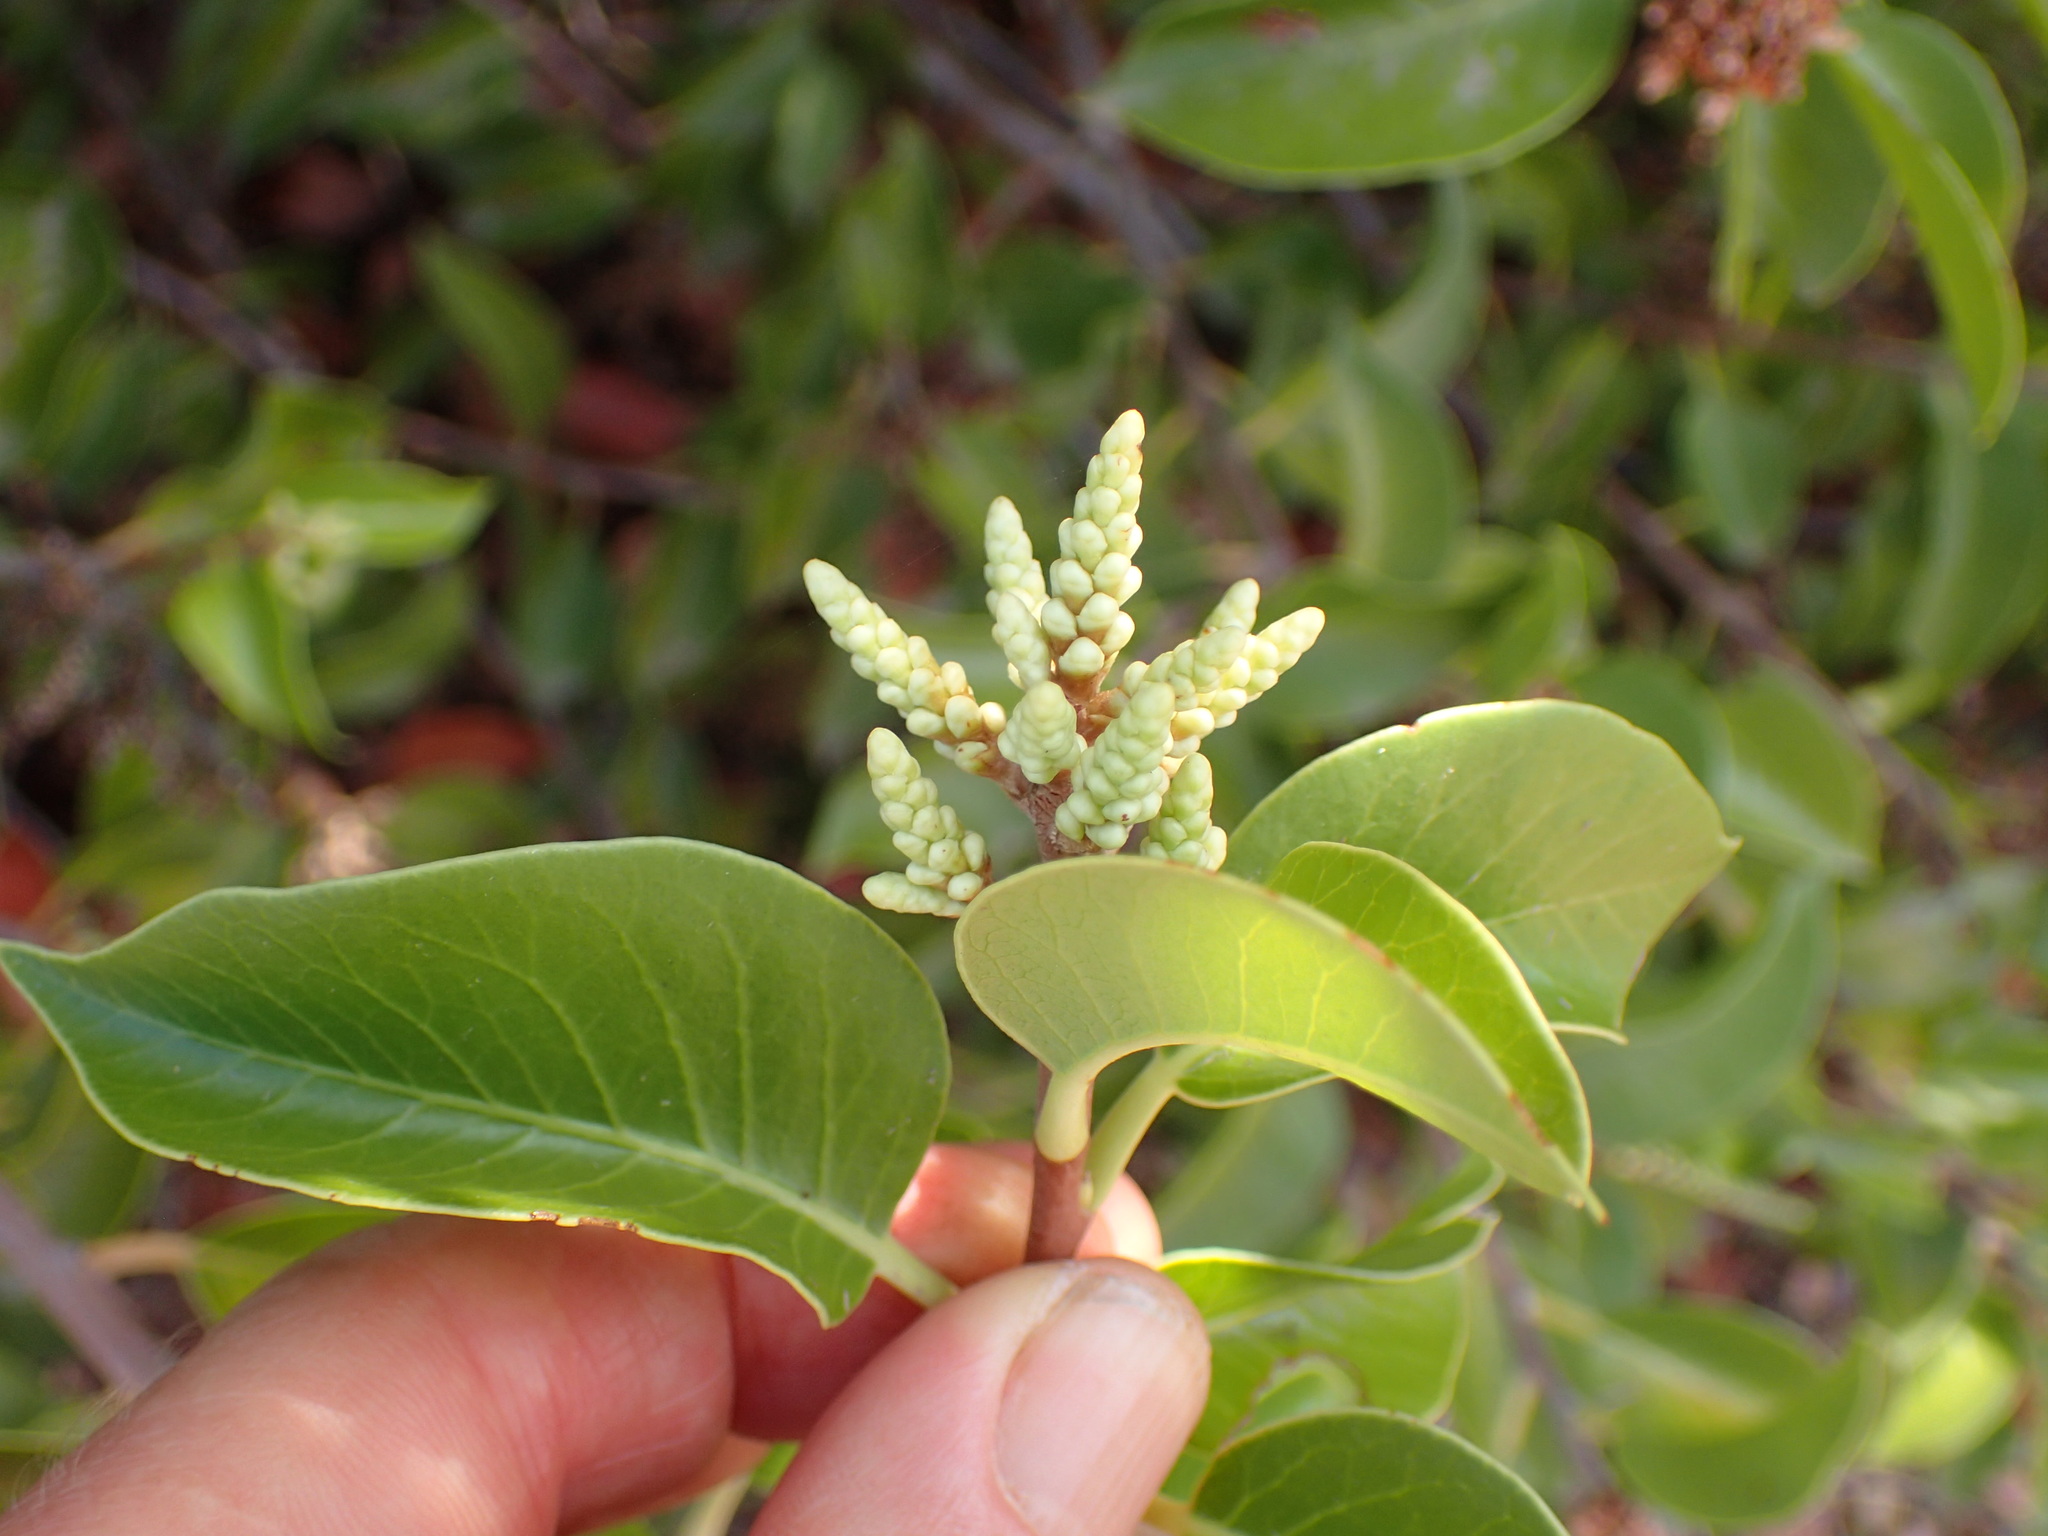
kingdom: Plantae
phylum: Tracheophyta
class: Magnoliopsida
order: Sapindales
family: Anacardiaceae
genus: Rhus
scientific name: Rhus ovata
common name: Sugar sumac
